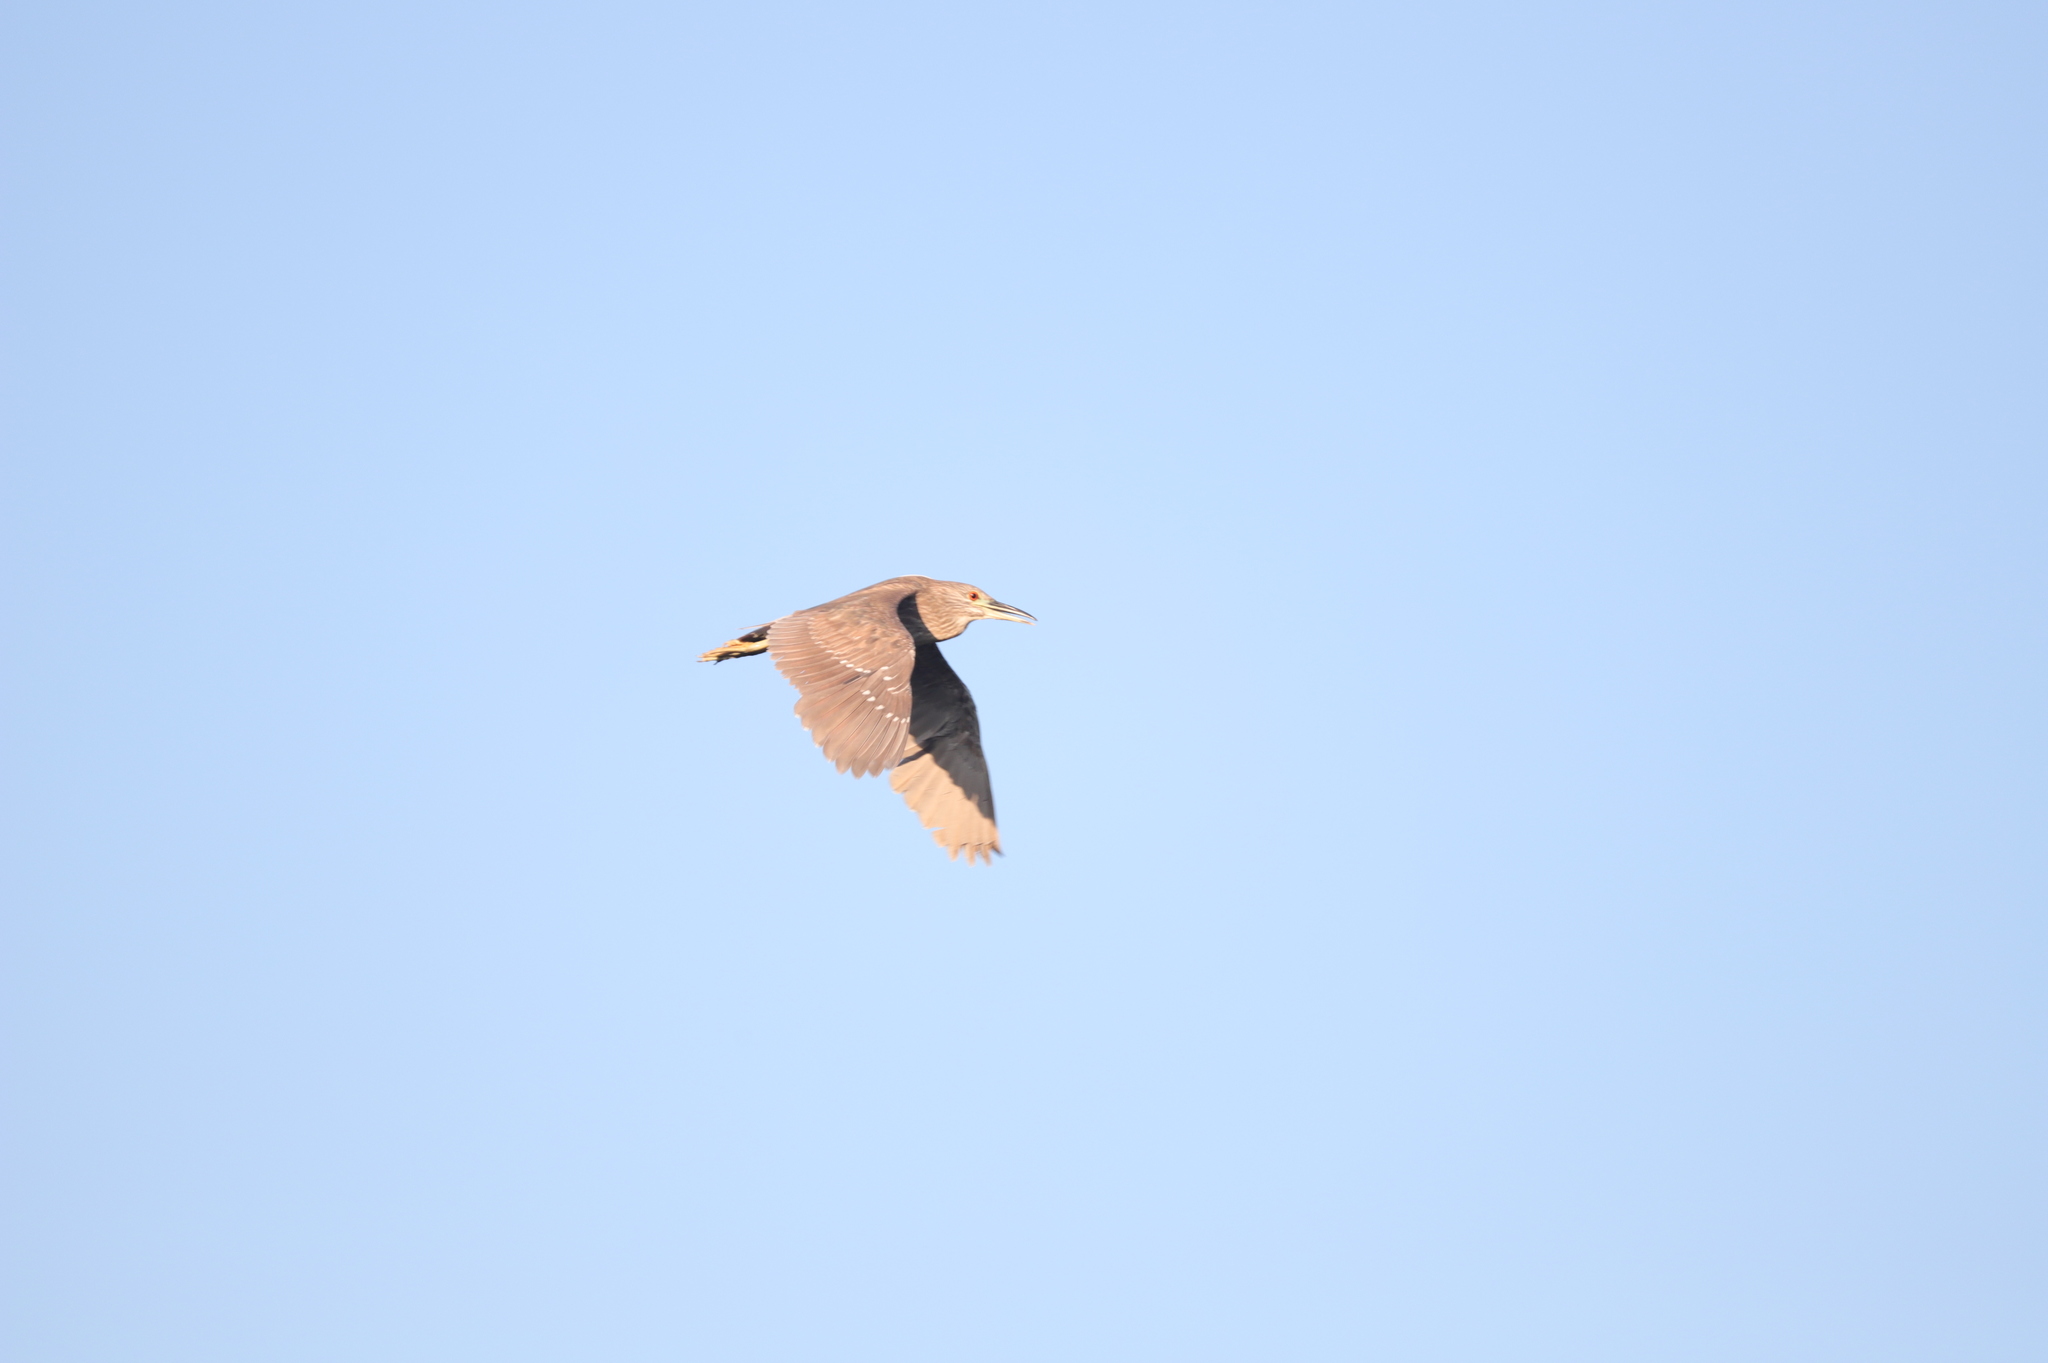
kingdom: Animalia
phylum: Chordata
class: Aves
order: Pelecaniformes
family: Ardeidae
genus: Nycticorax
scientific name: Nycticorax nycticorax
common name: Black-crowned night heron
